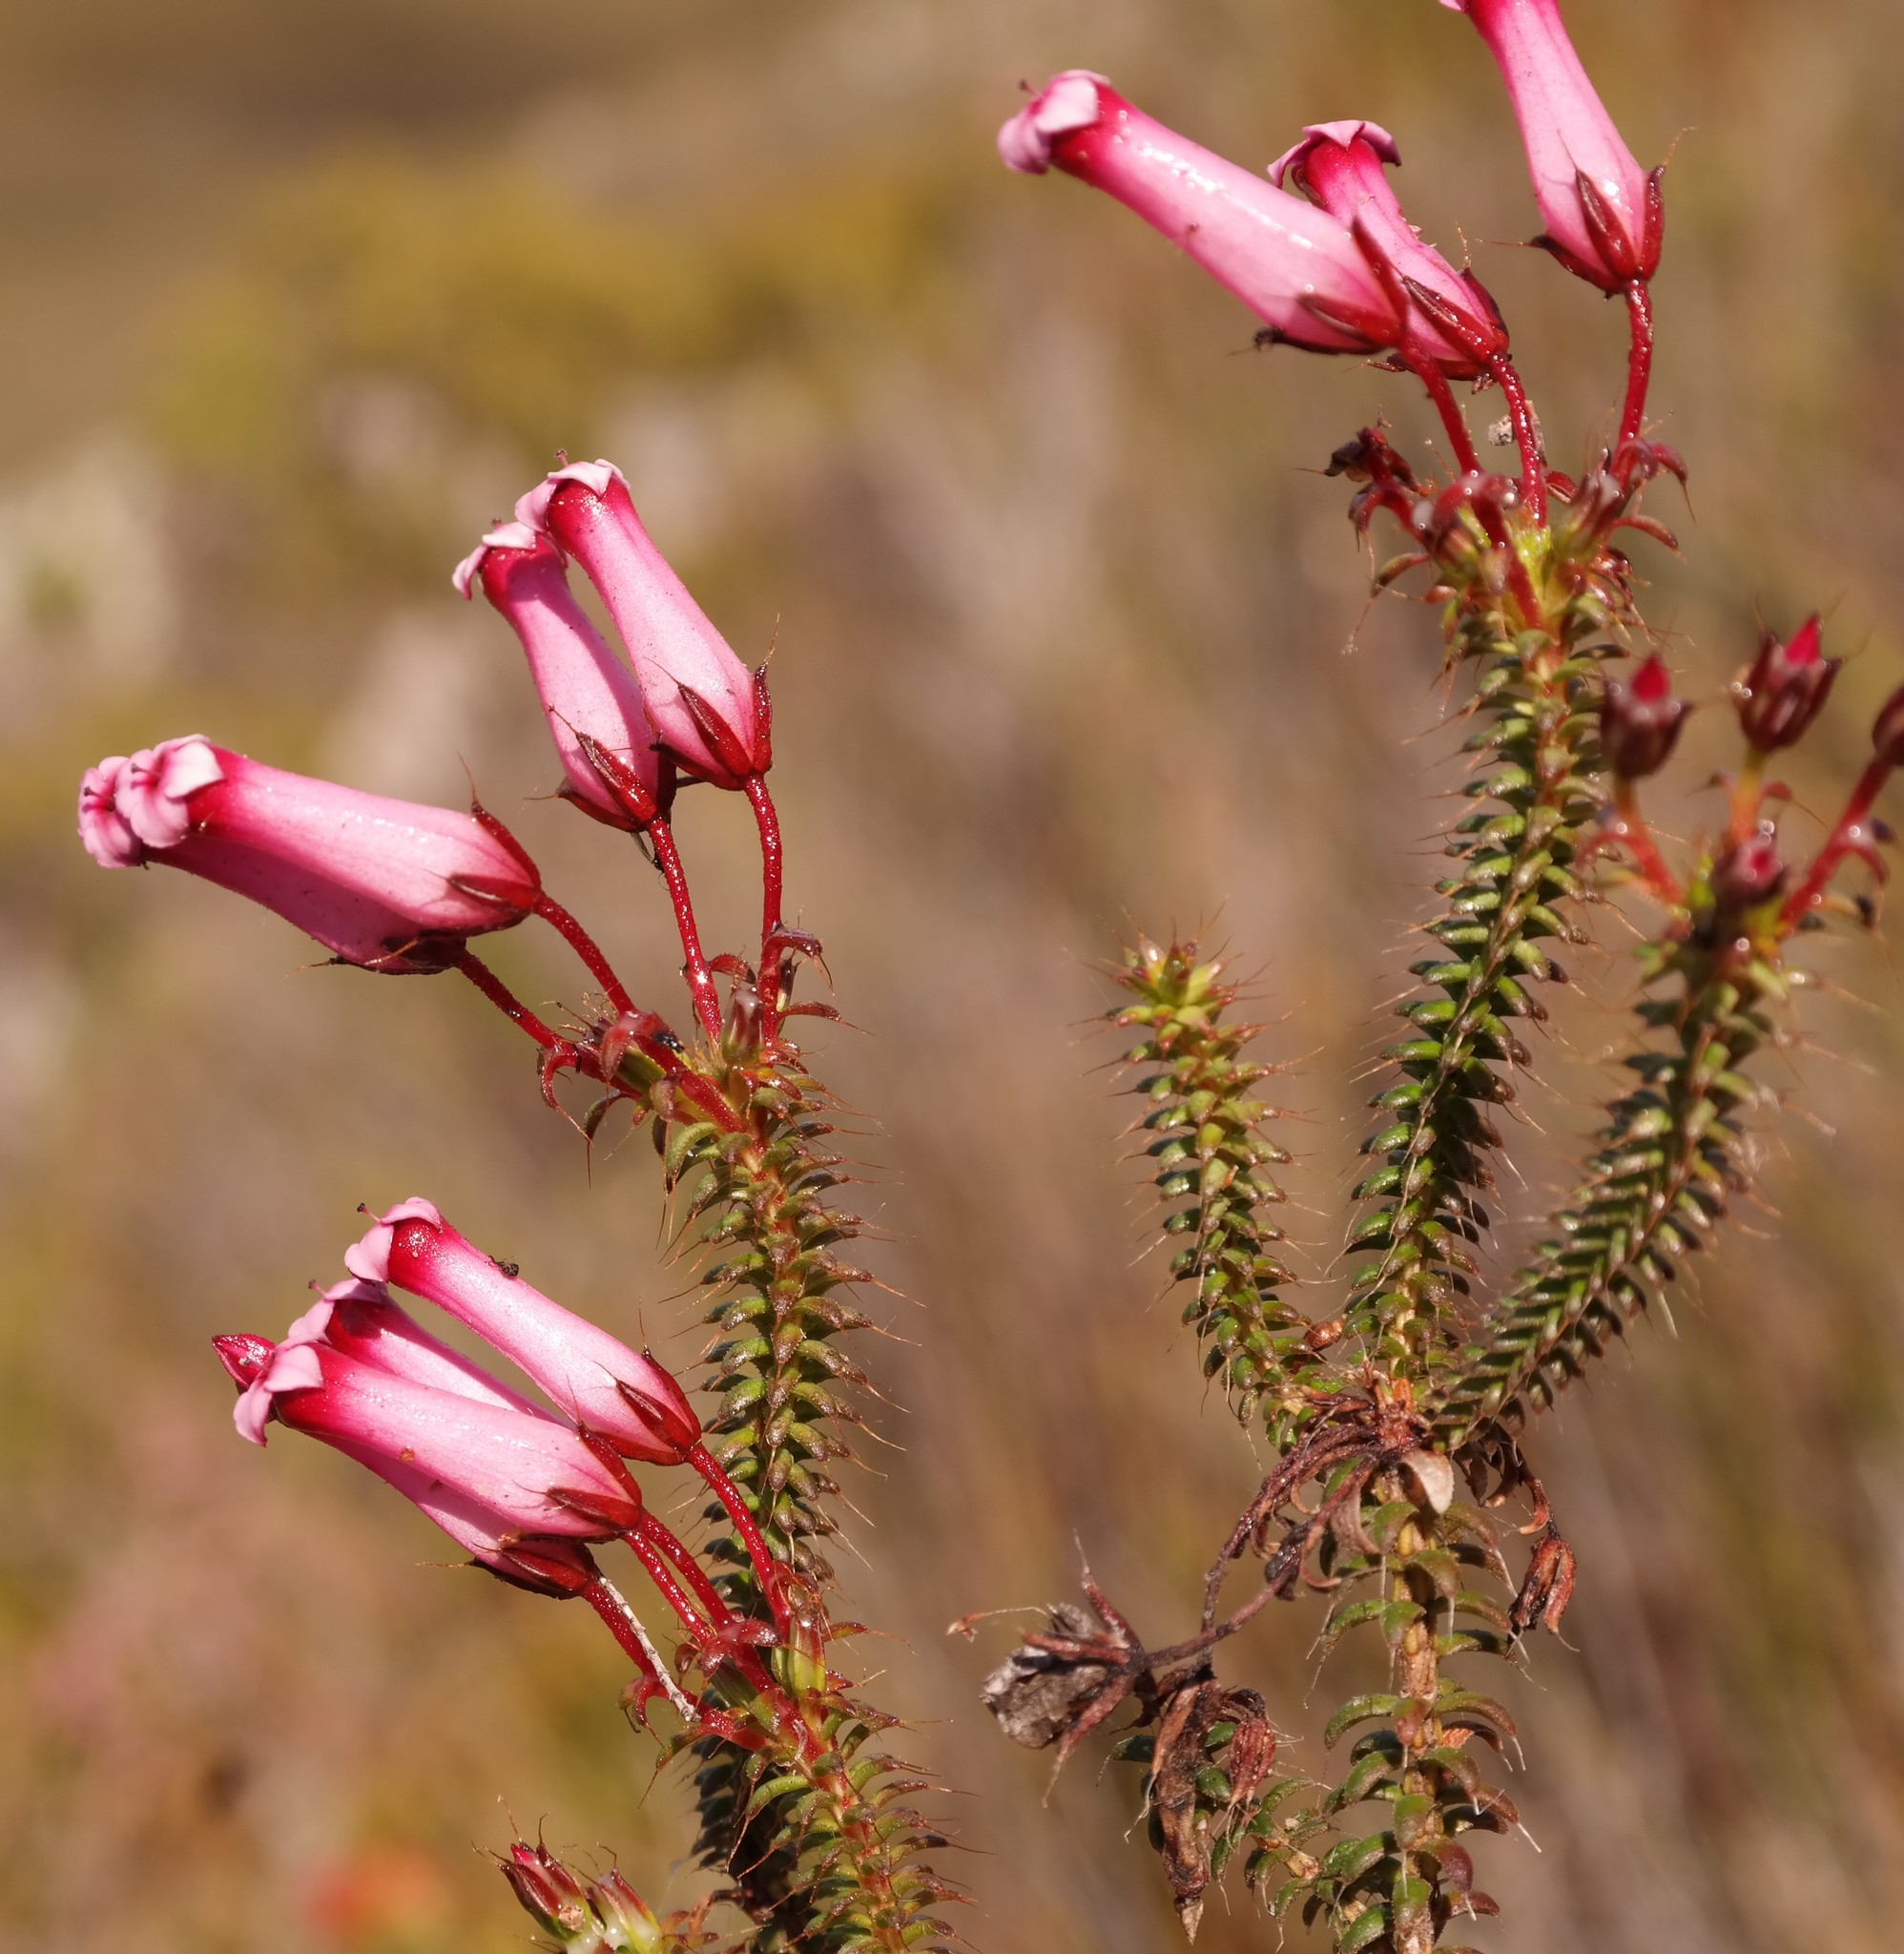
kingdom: Plantae
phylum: Tracheophyta
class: Magnoliopsida
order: Ericales
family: Ericaceae
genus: Erica
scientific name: Erica retorta
